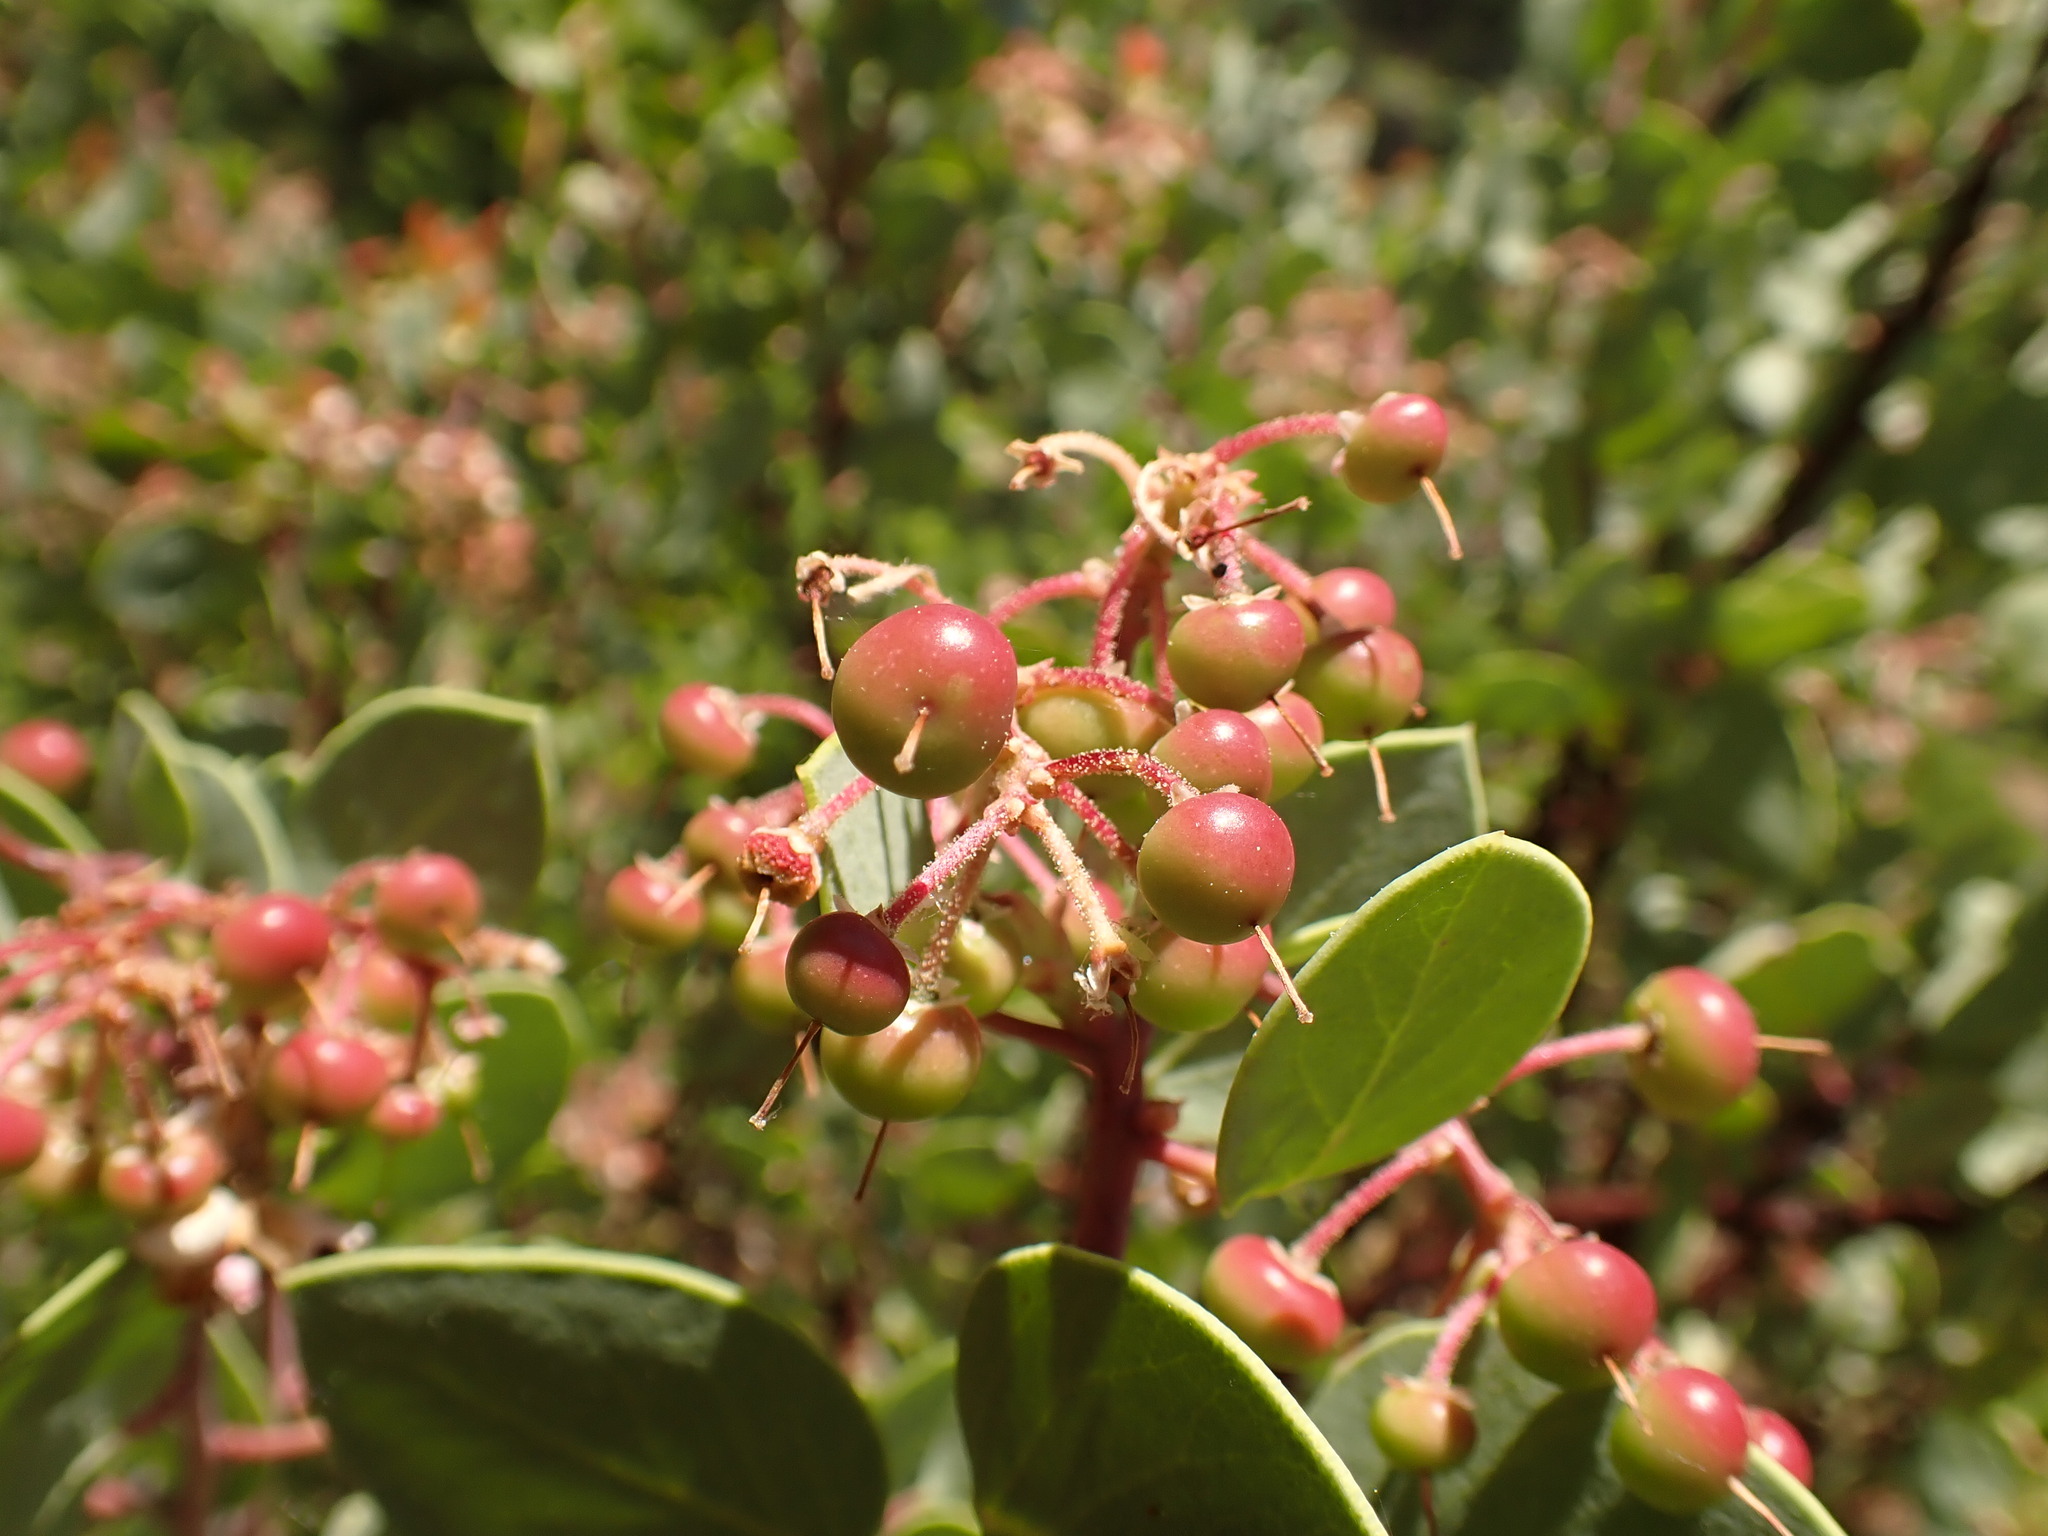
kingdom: Plantae
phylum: Tracheophyta
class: Magnoliopsida
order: Ericales
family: Ericaceae
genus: Arctostaphylos
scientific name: Arctostaphylos viscida
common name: White-leaf manzanita
